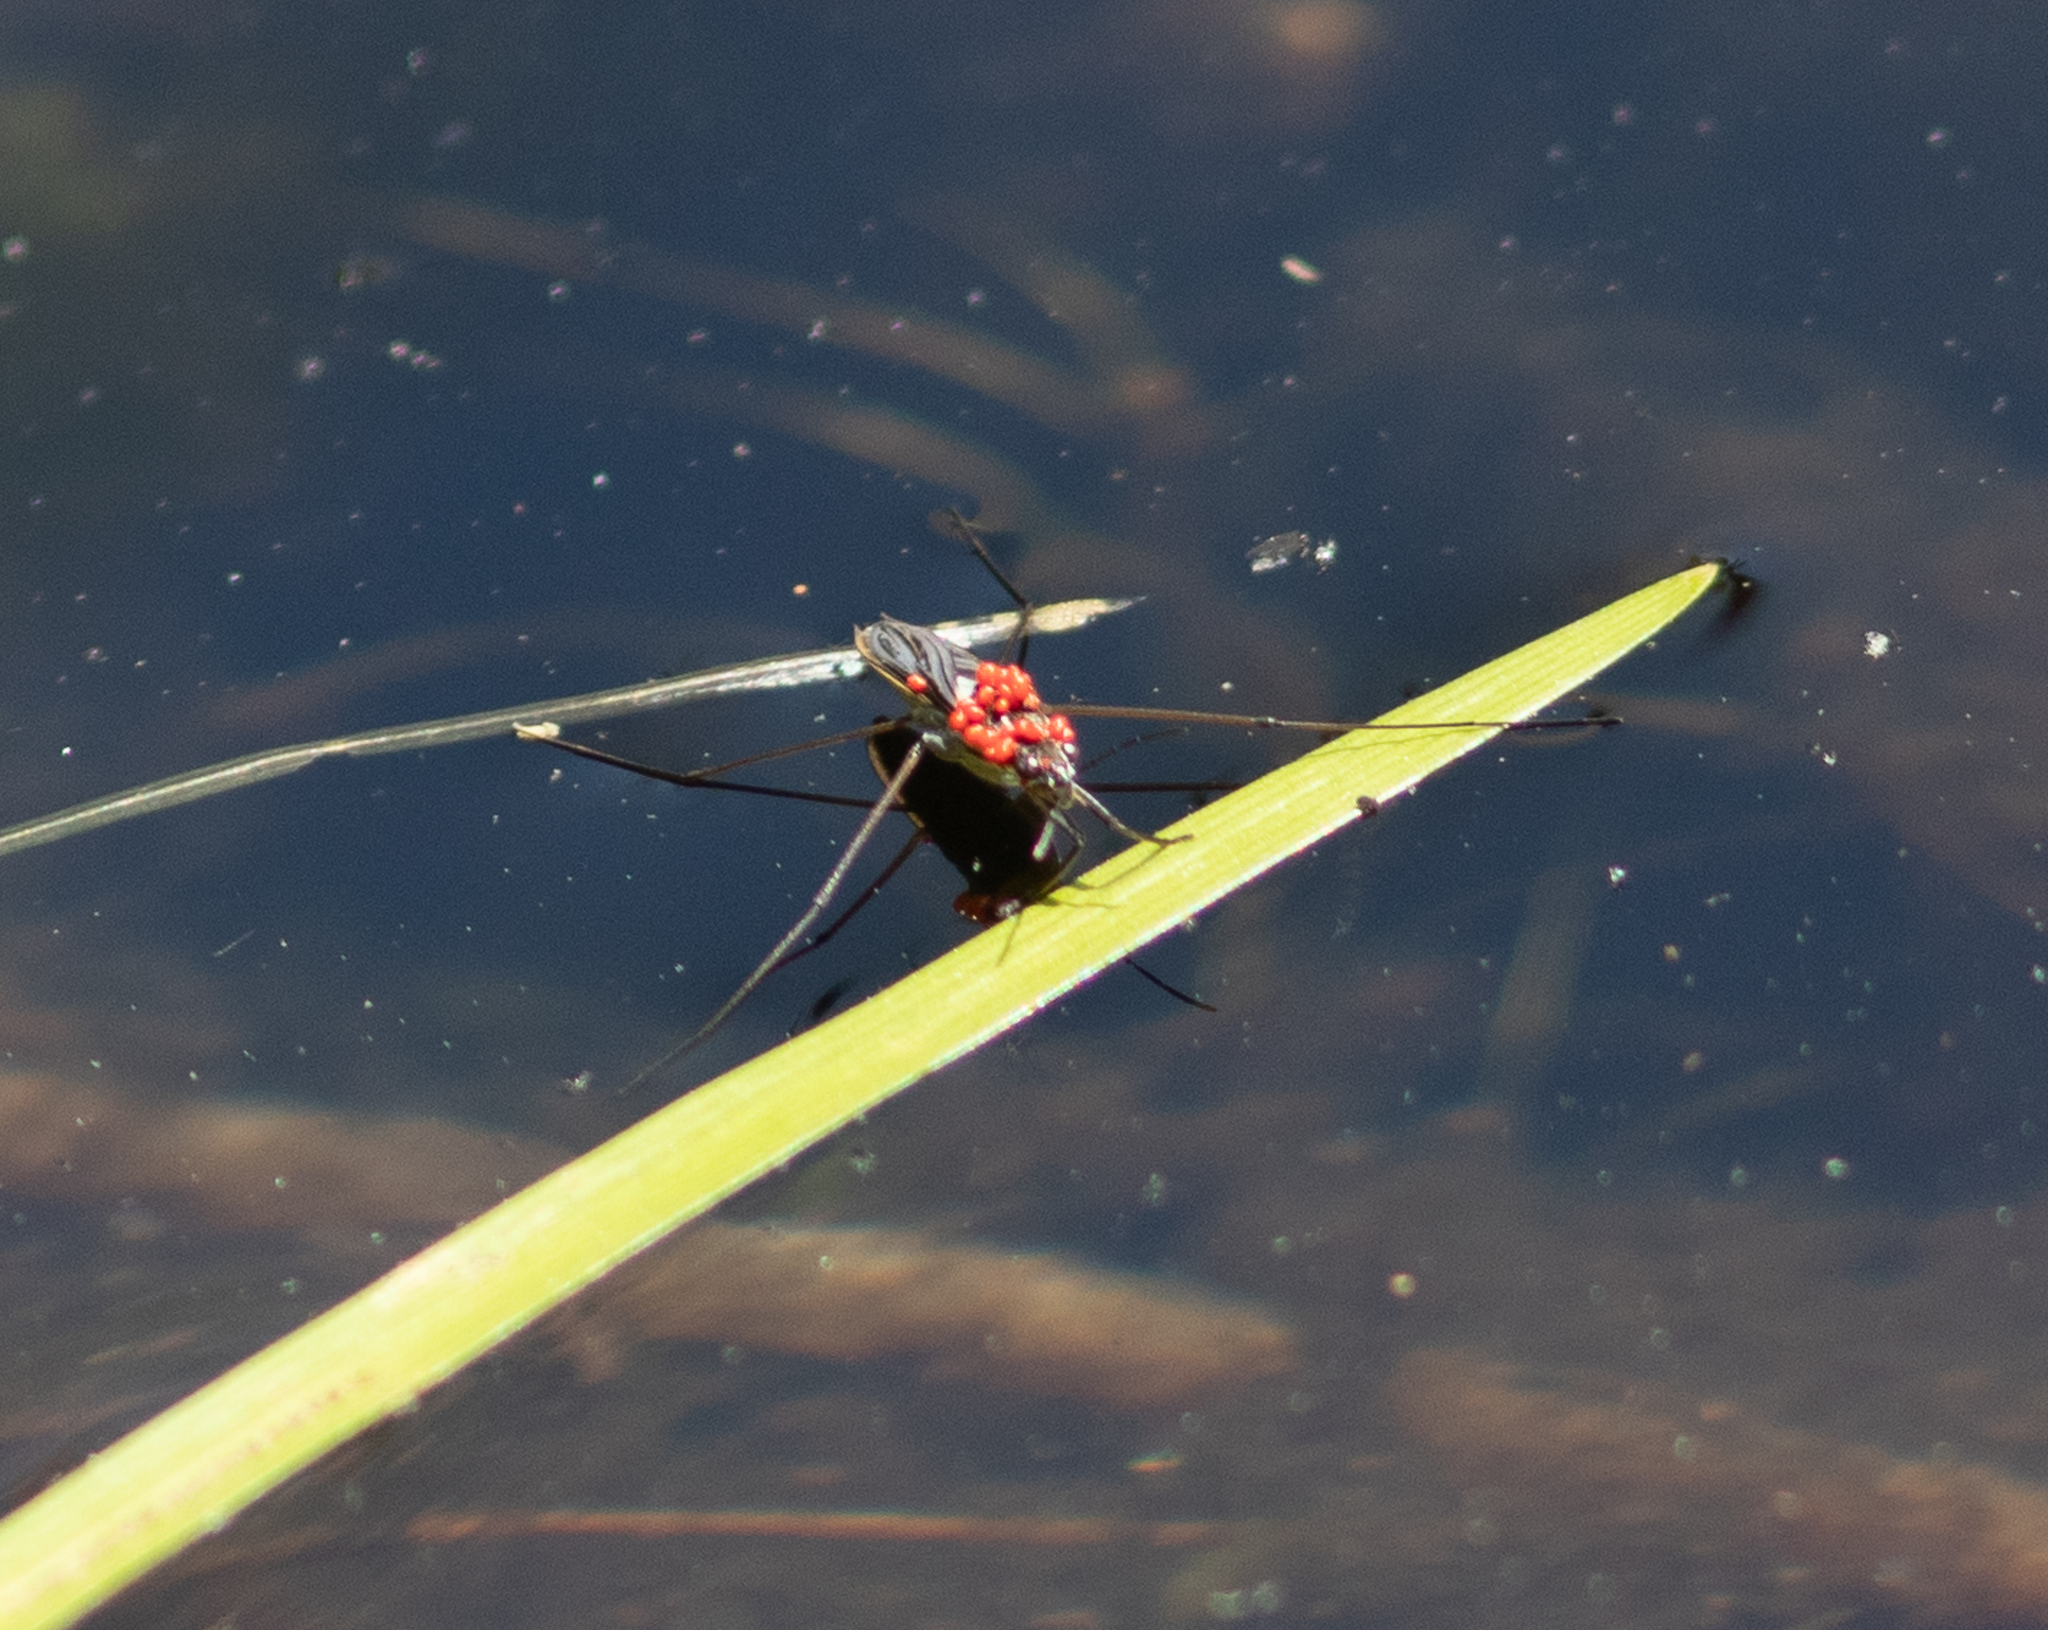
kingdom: Animalia
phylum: Arthropoda
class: Insecta
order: Hemiptera
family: Gerridae
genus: Gerris
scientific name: Gerris
